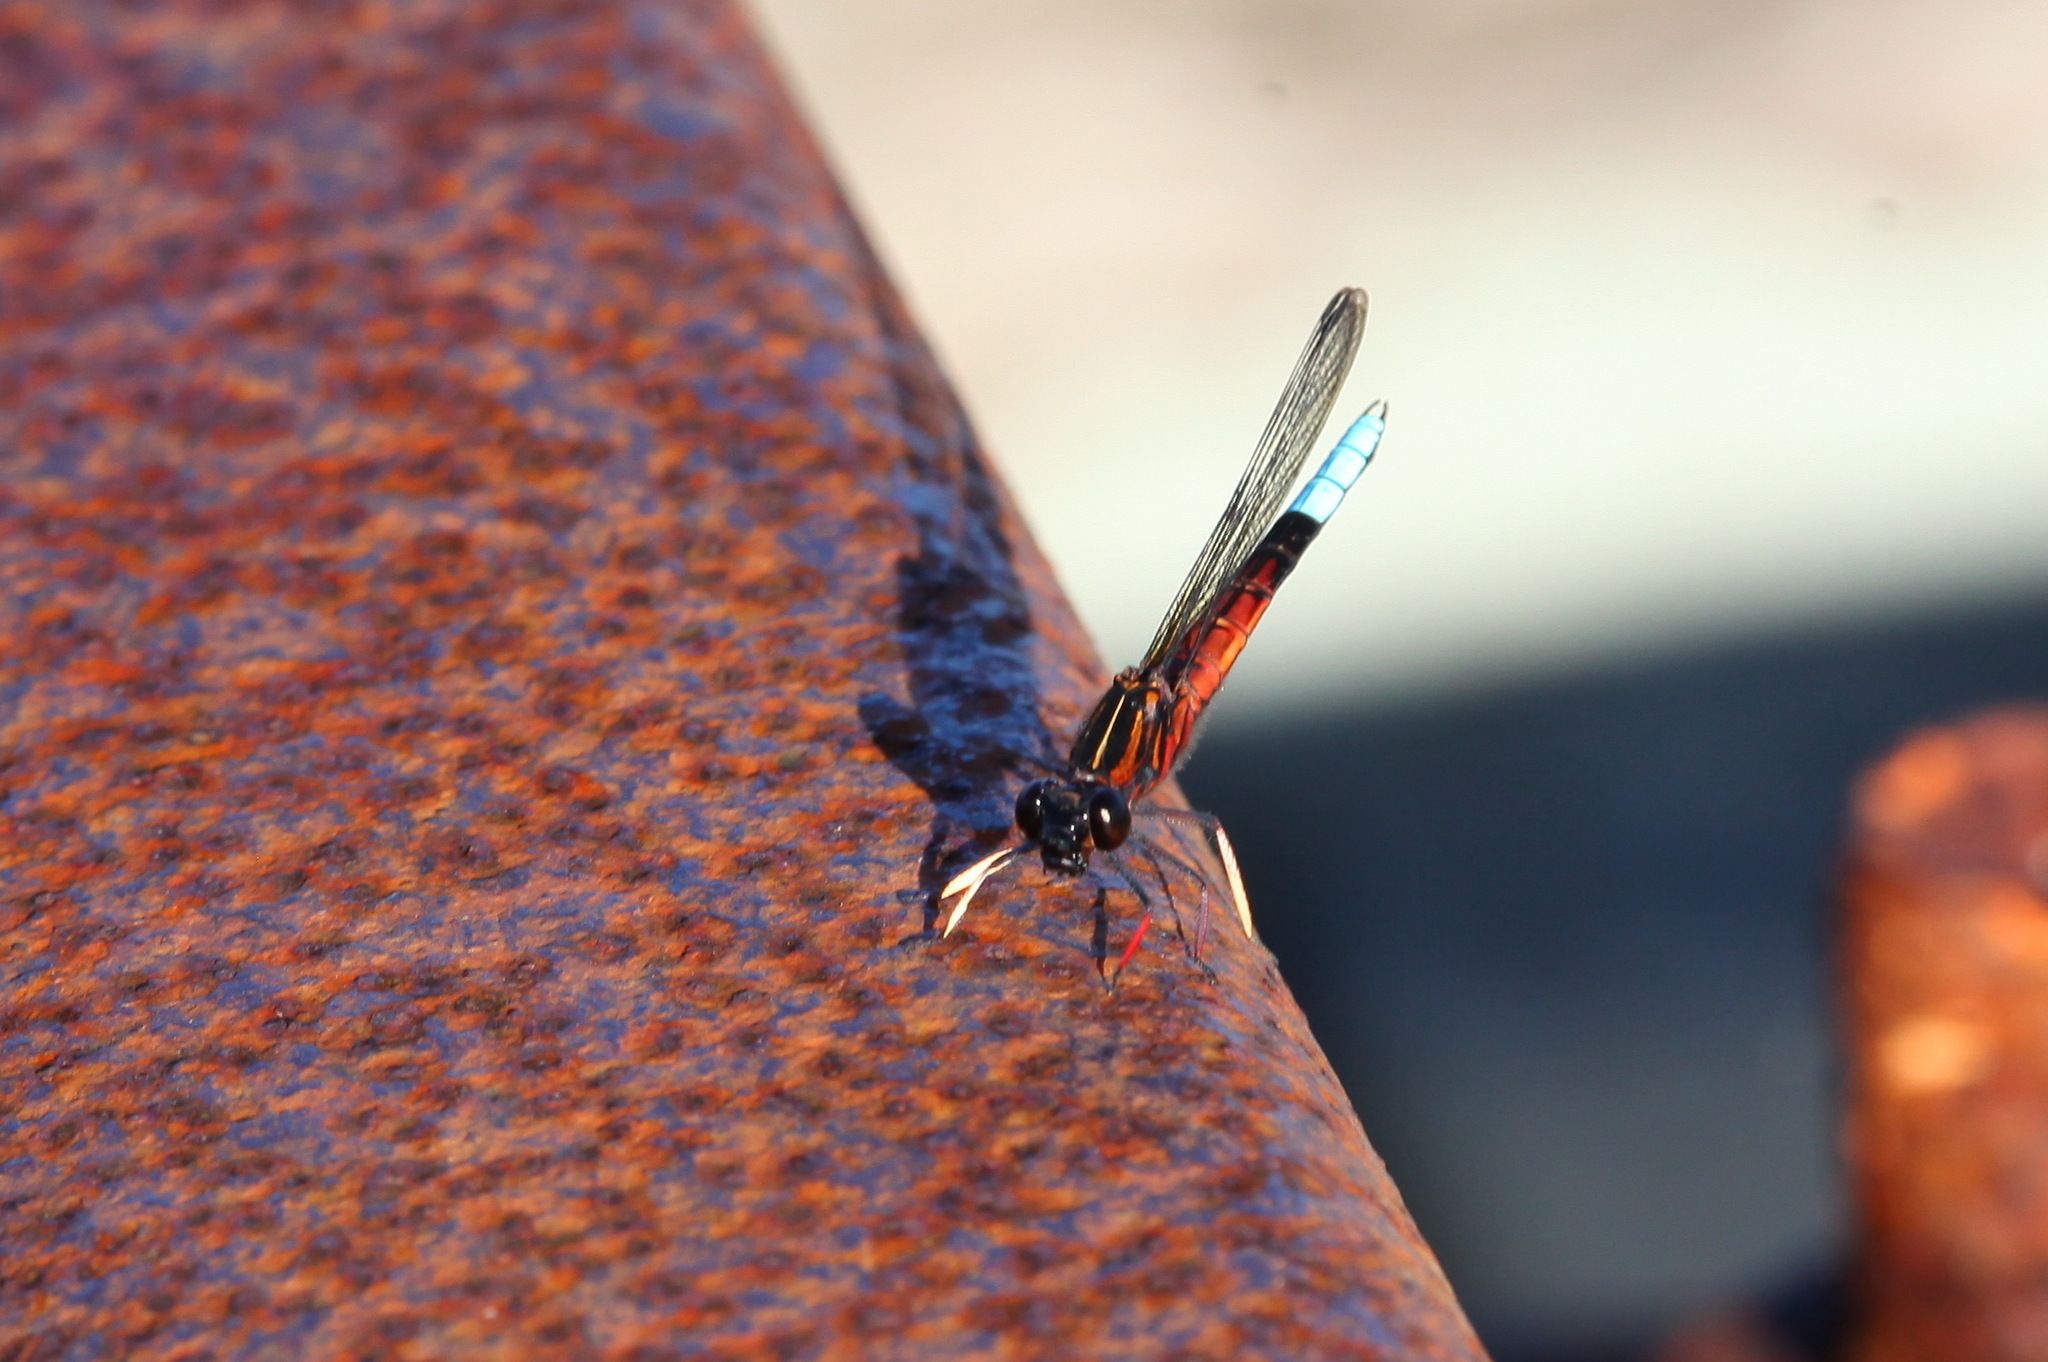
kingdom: Animalia
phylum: Arthropoda
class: Insecta
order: Odonata
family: Chlorocyphidae
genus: Platycypha
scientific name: Platycypha fitzsimonsi
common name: Boulder jewel
